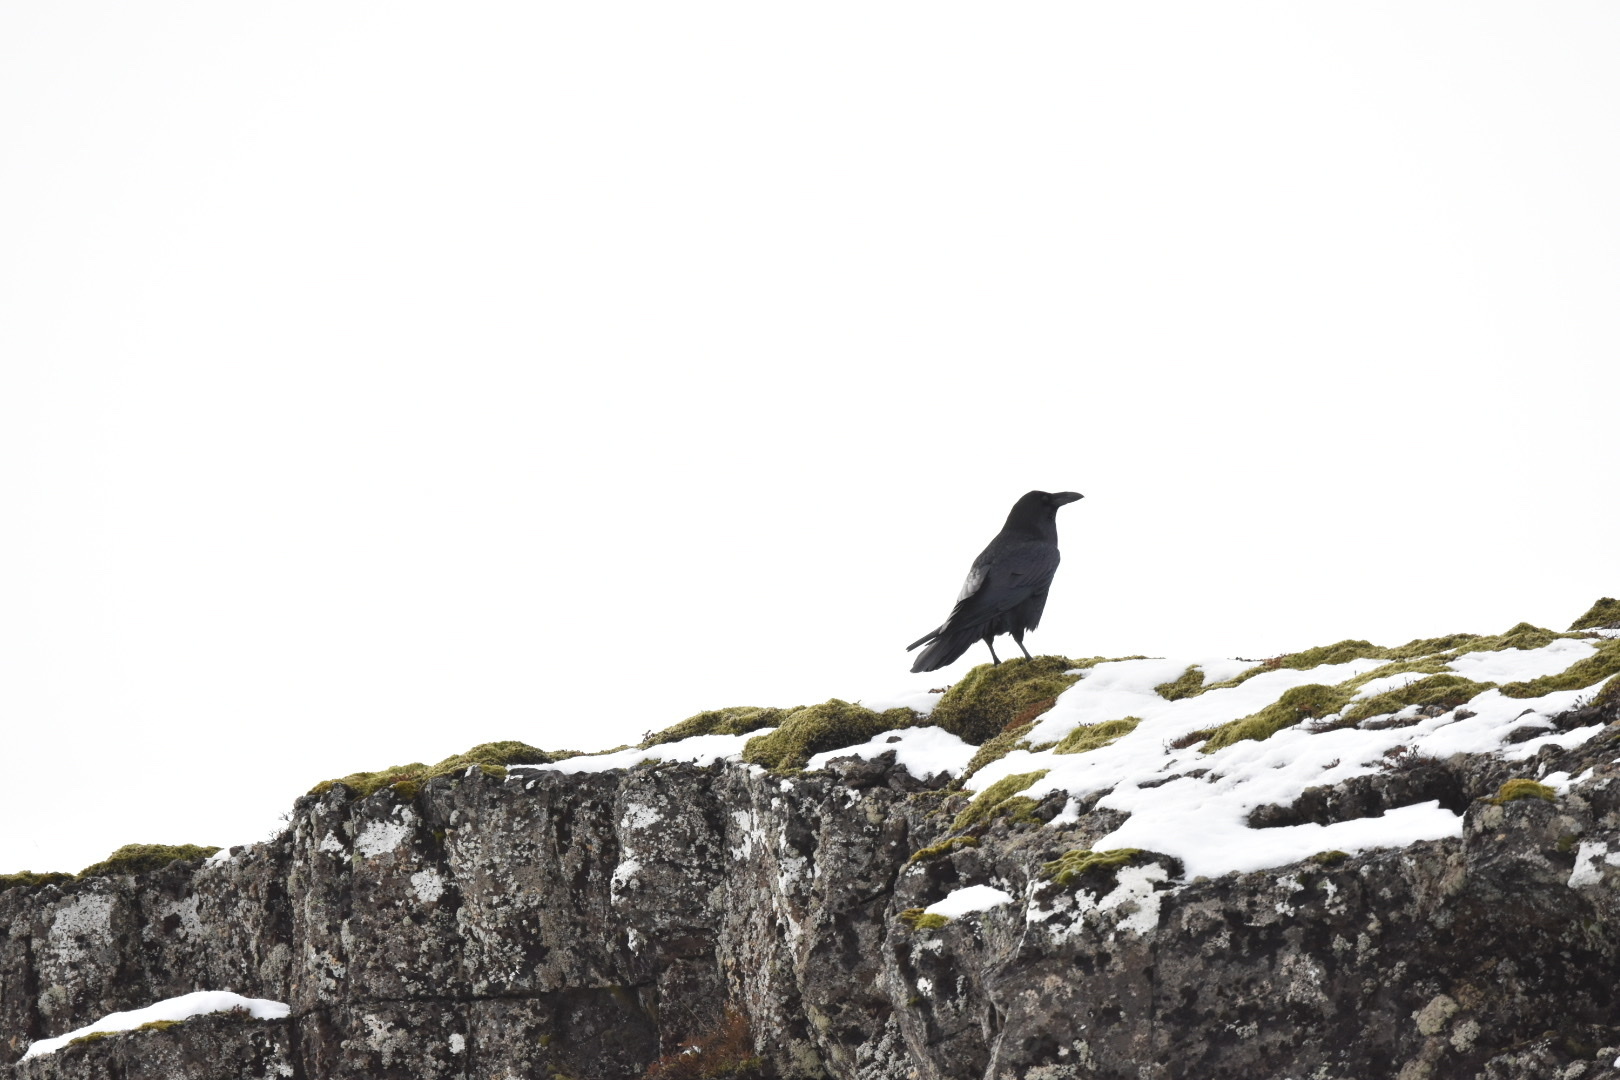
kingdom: Animalia
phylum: Chordata
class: Aves
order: Passeriformes
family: Corvidae
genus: Corvus
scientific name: Corvus corax
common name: Common raven
